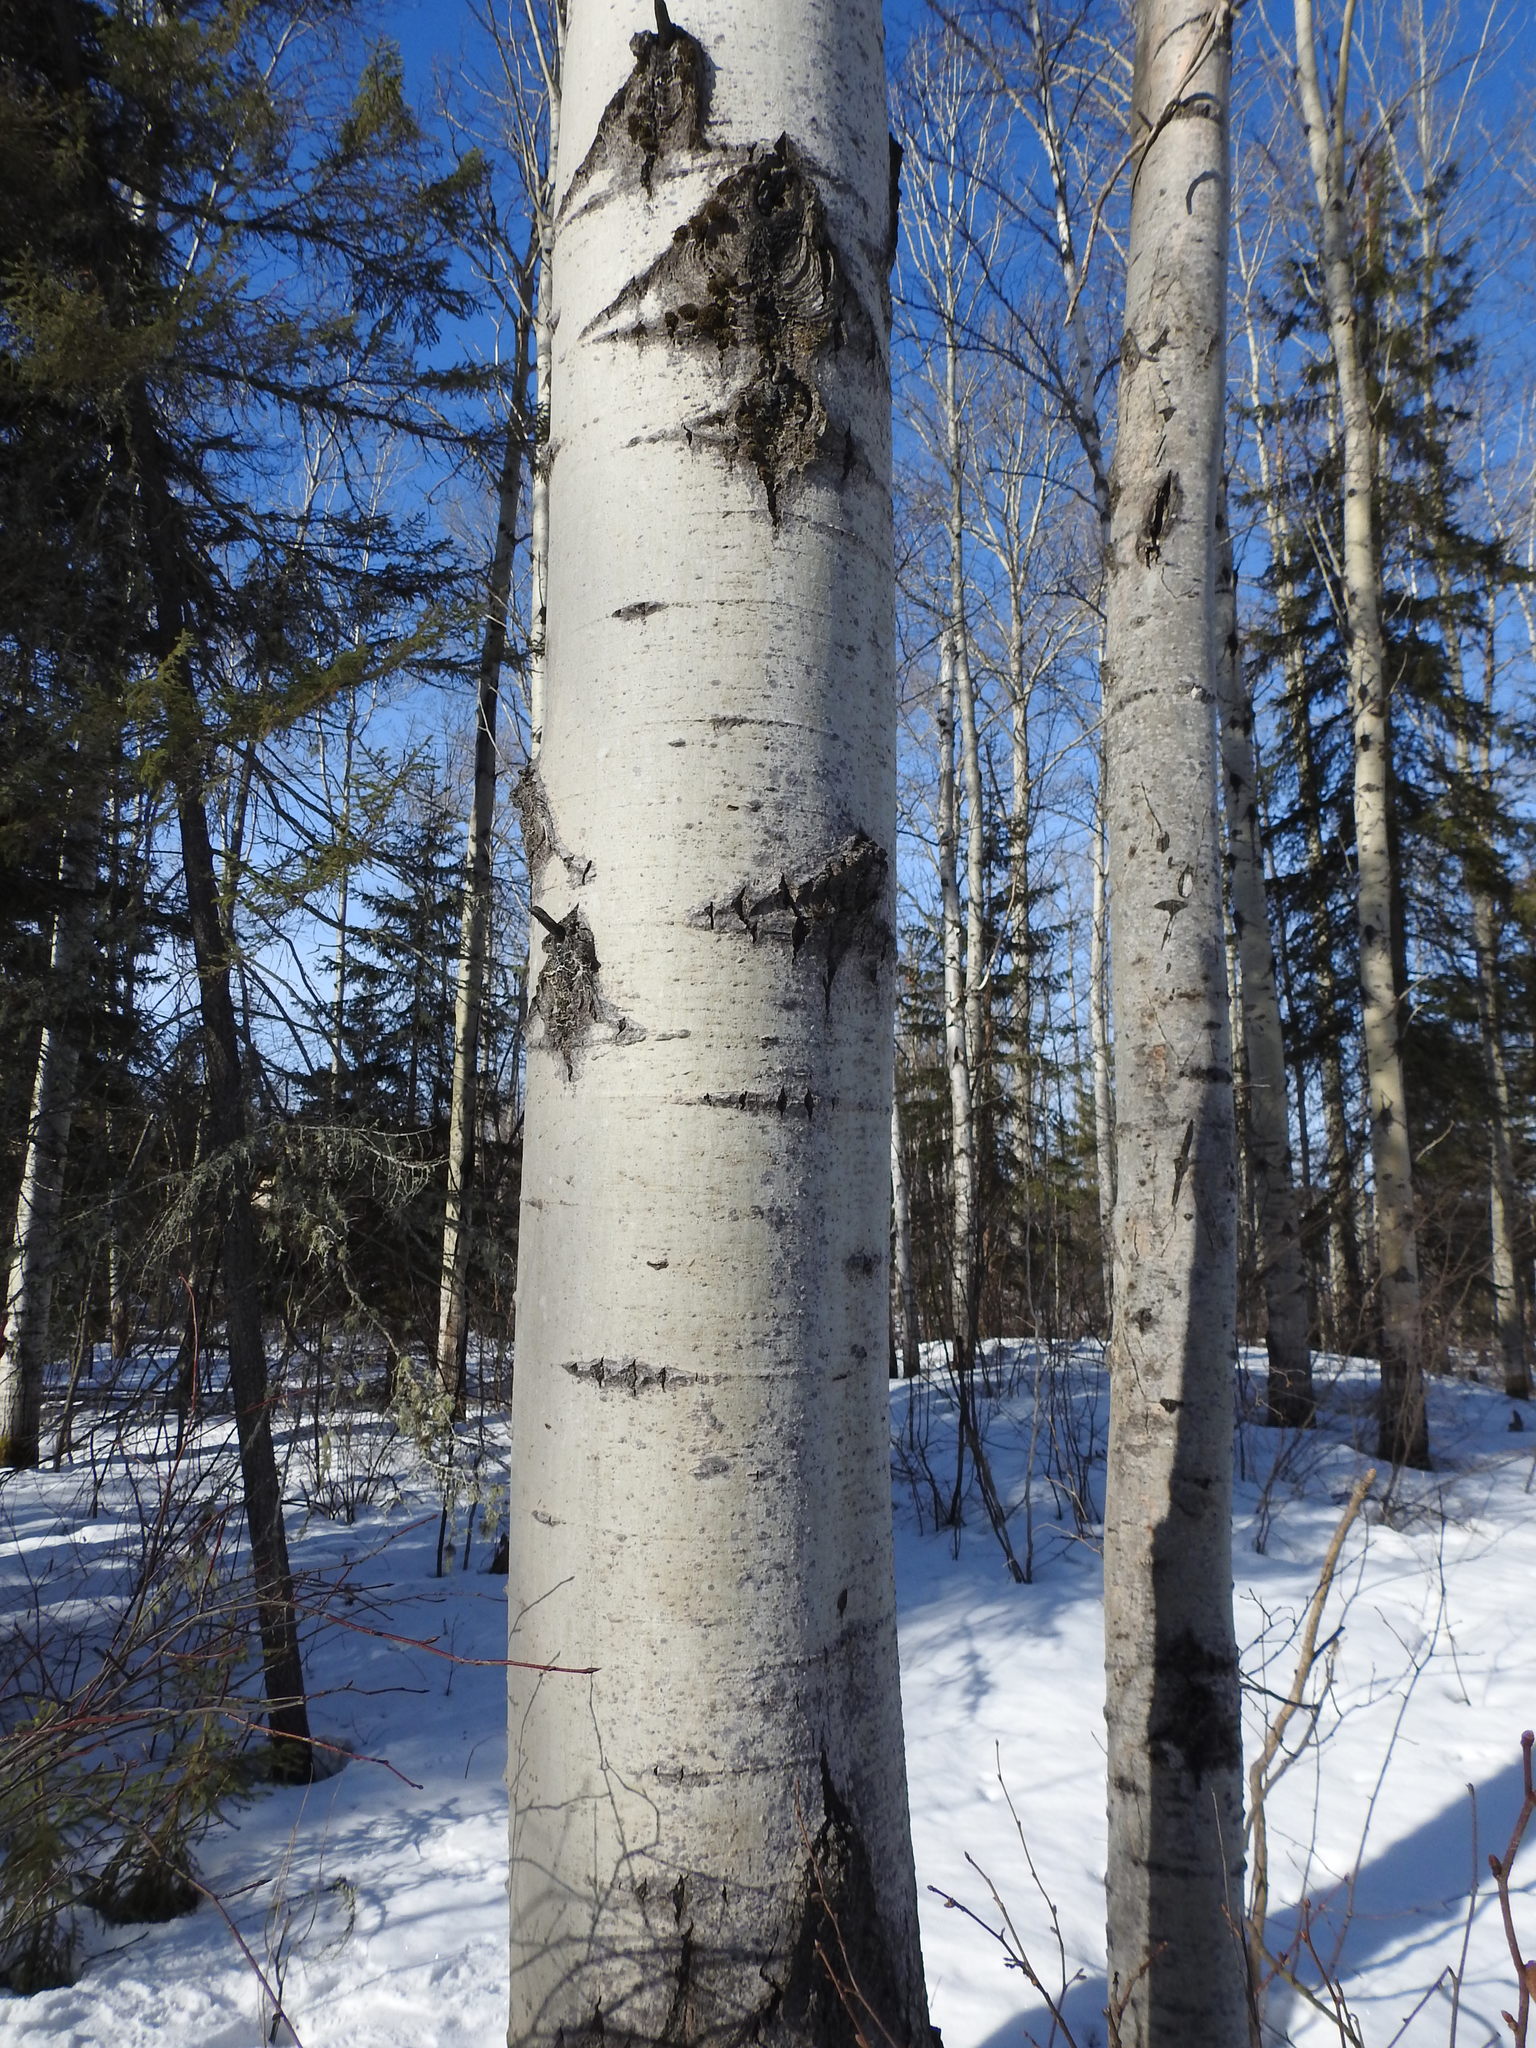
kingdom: Plantae
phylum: Tracheophyta
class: Magnoliopsida
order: Malpighiales
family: Salicaceae
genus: Populus
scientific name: Populus tremuloides
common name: Quaking aspen
